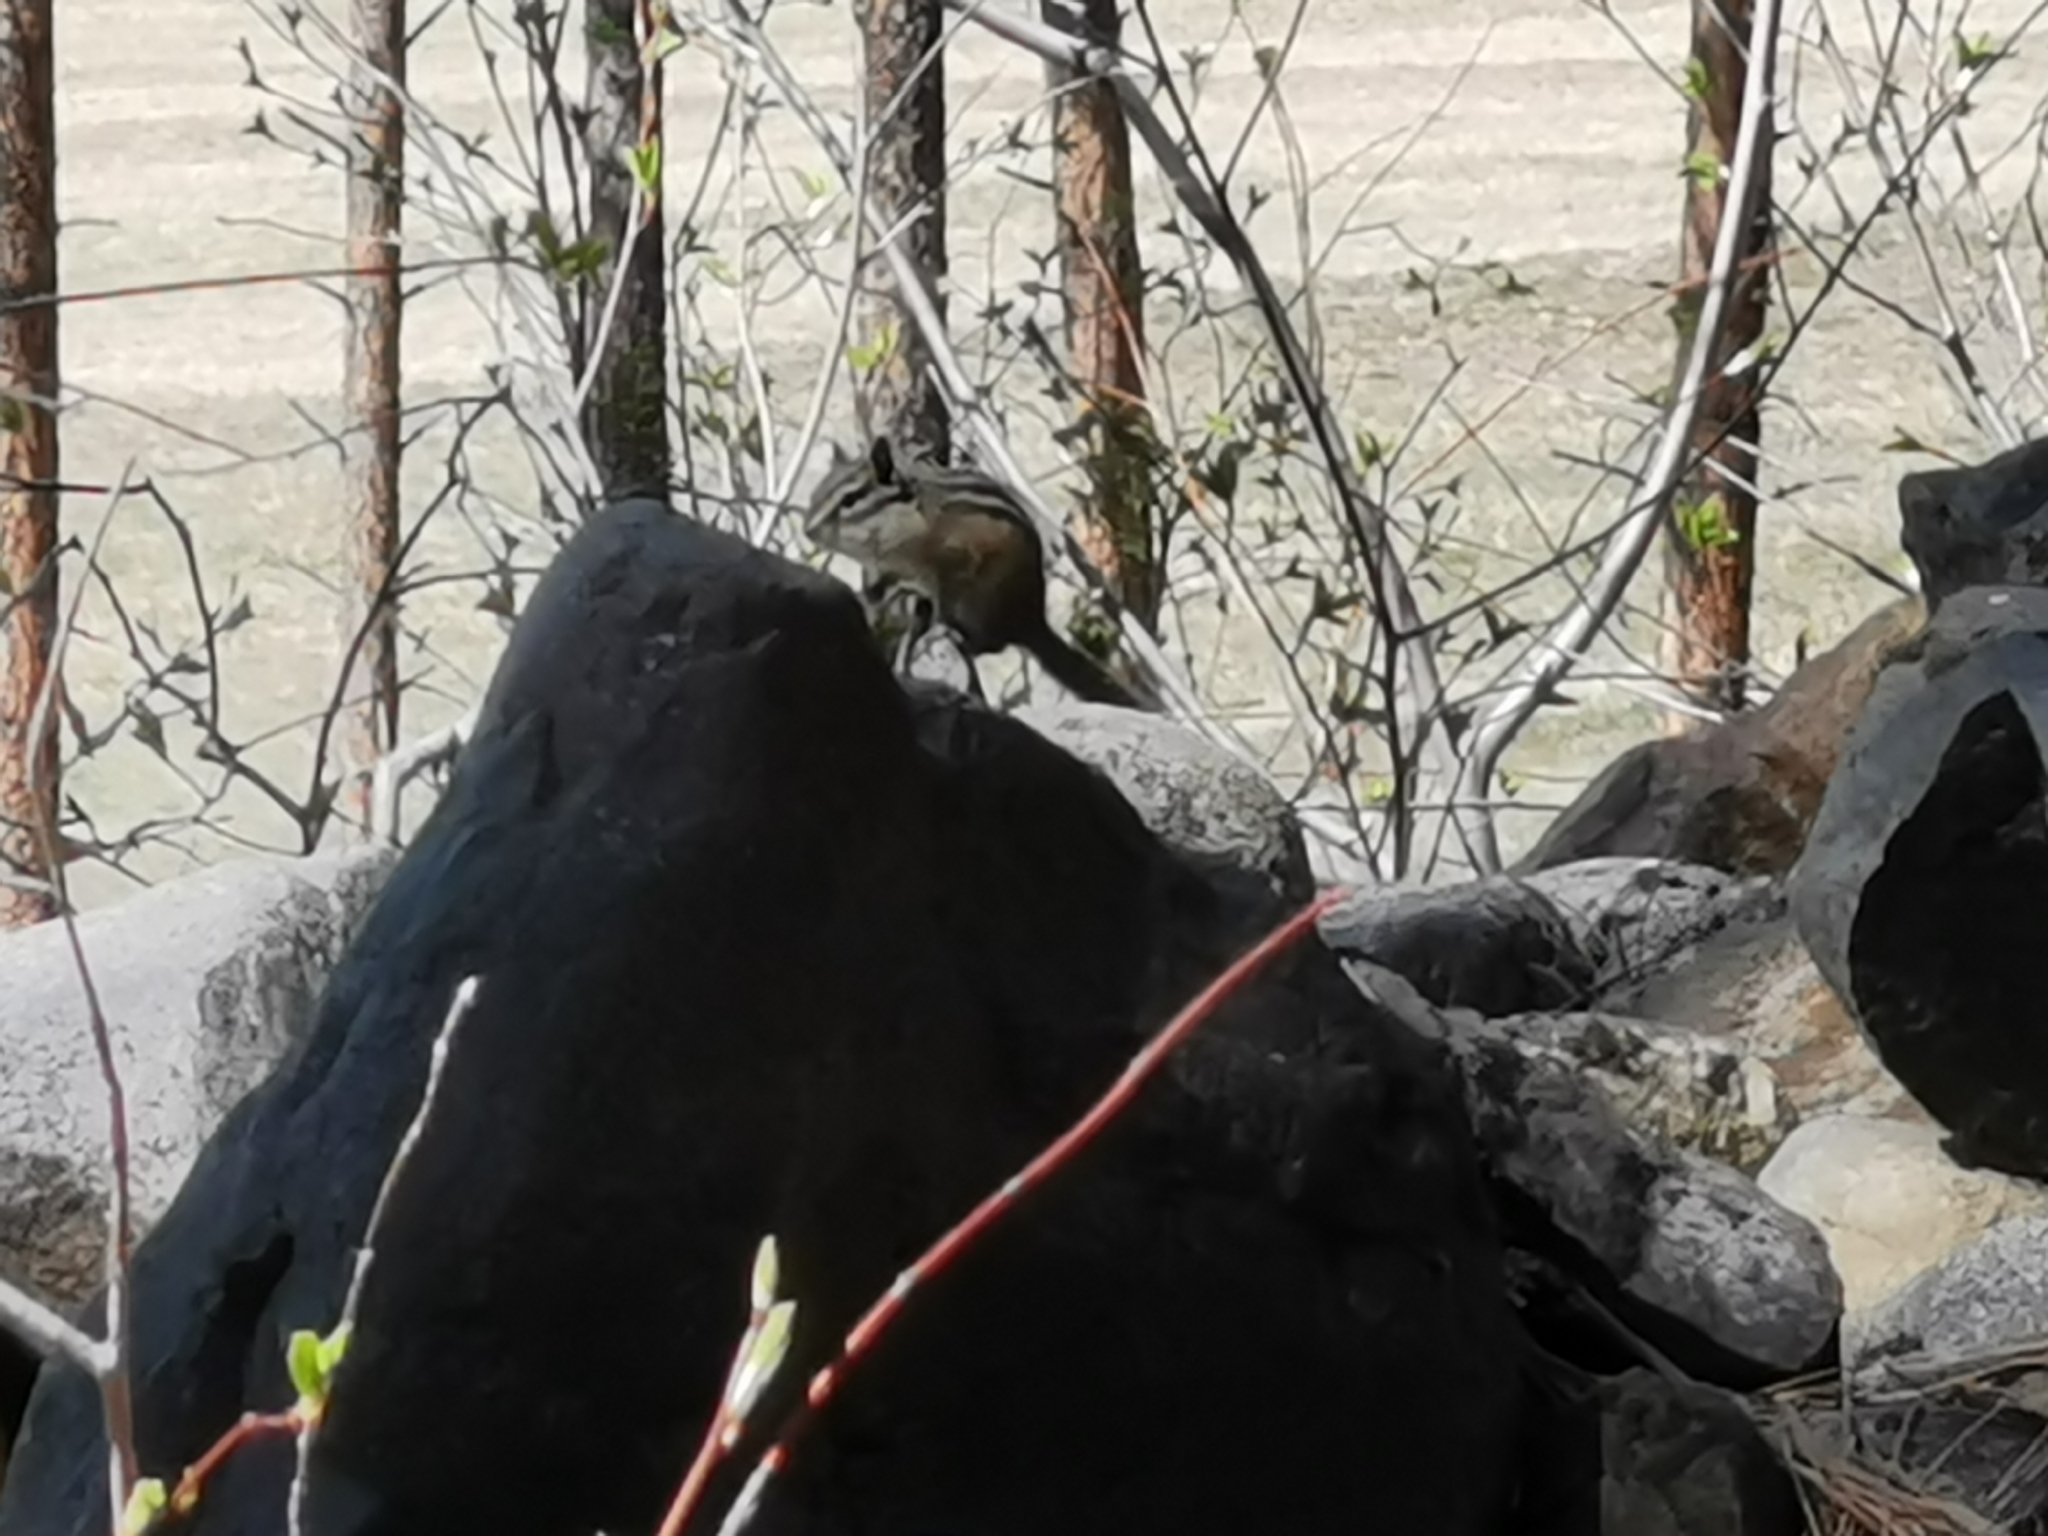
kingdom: Animalia
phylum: Chordata
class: Mammalia
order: Rodentia
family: Sciuridae
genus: Tamias
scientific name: Tamias amoenus
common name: Yellow-pine chipmunk
